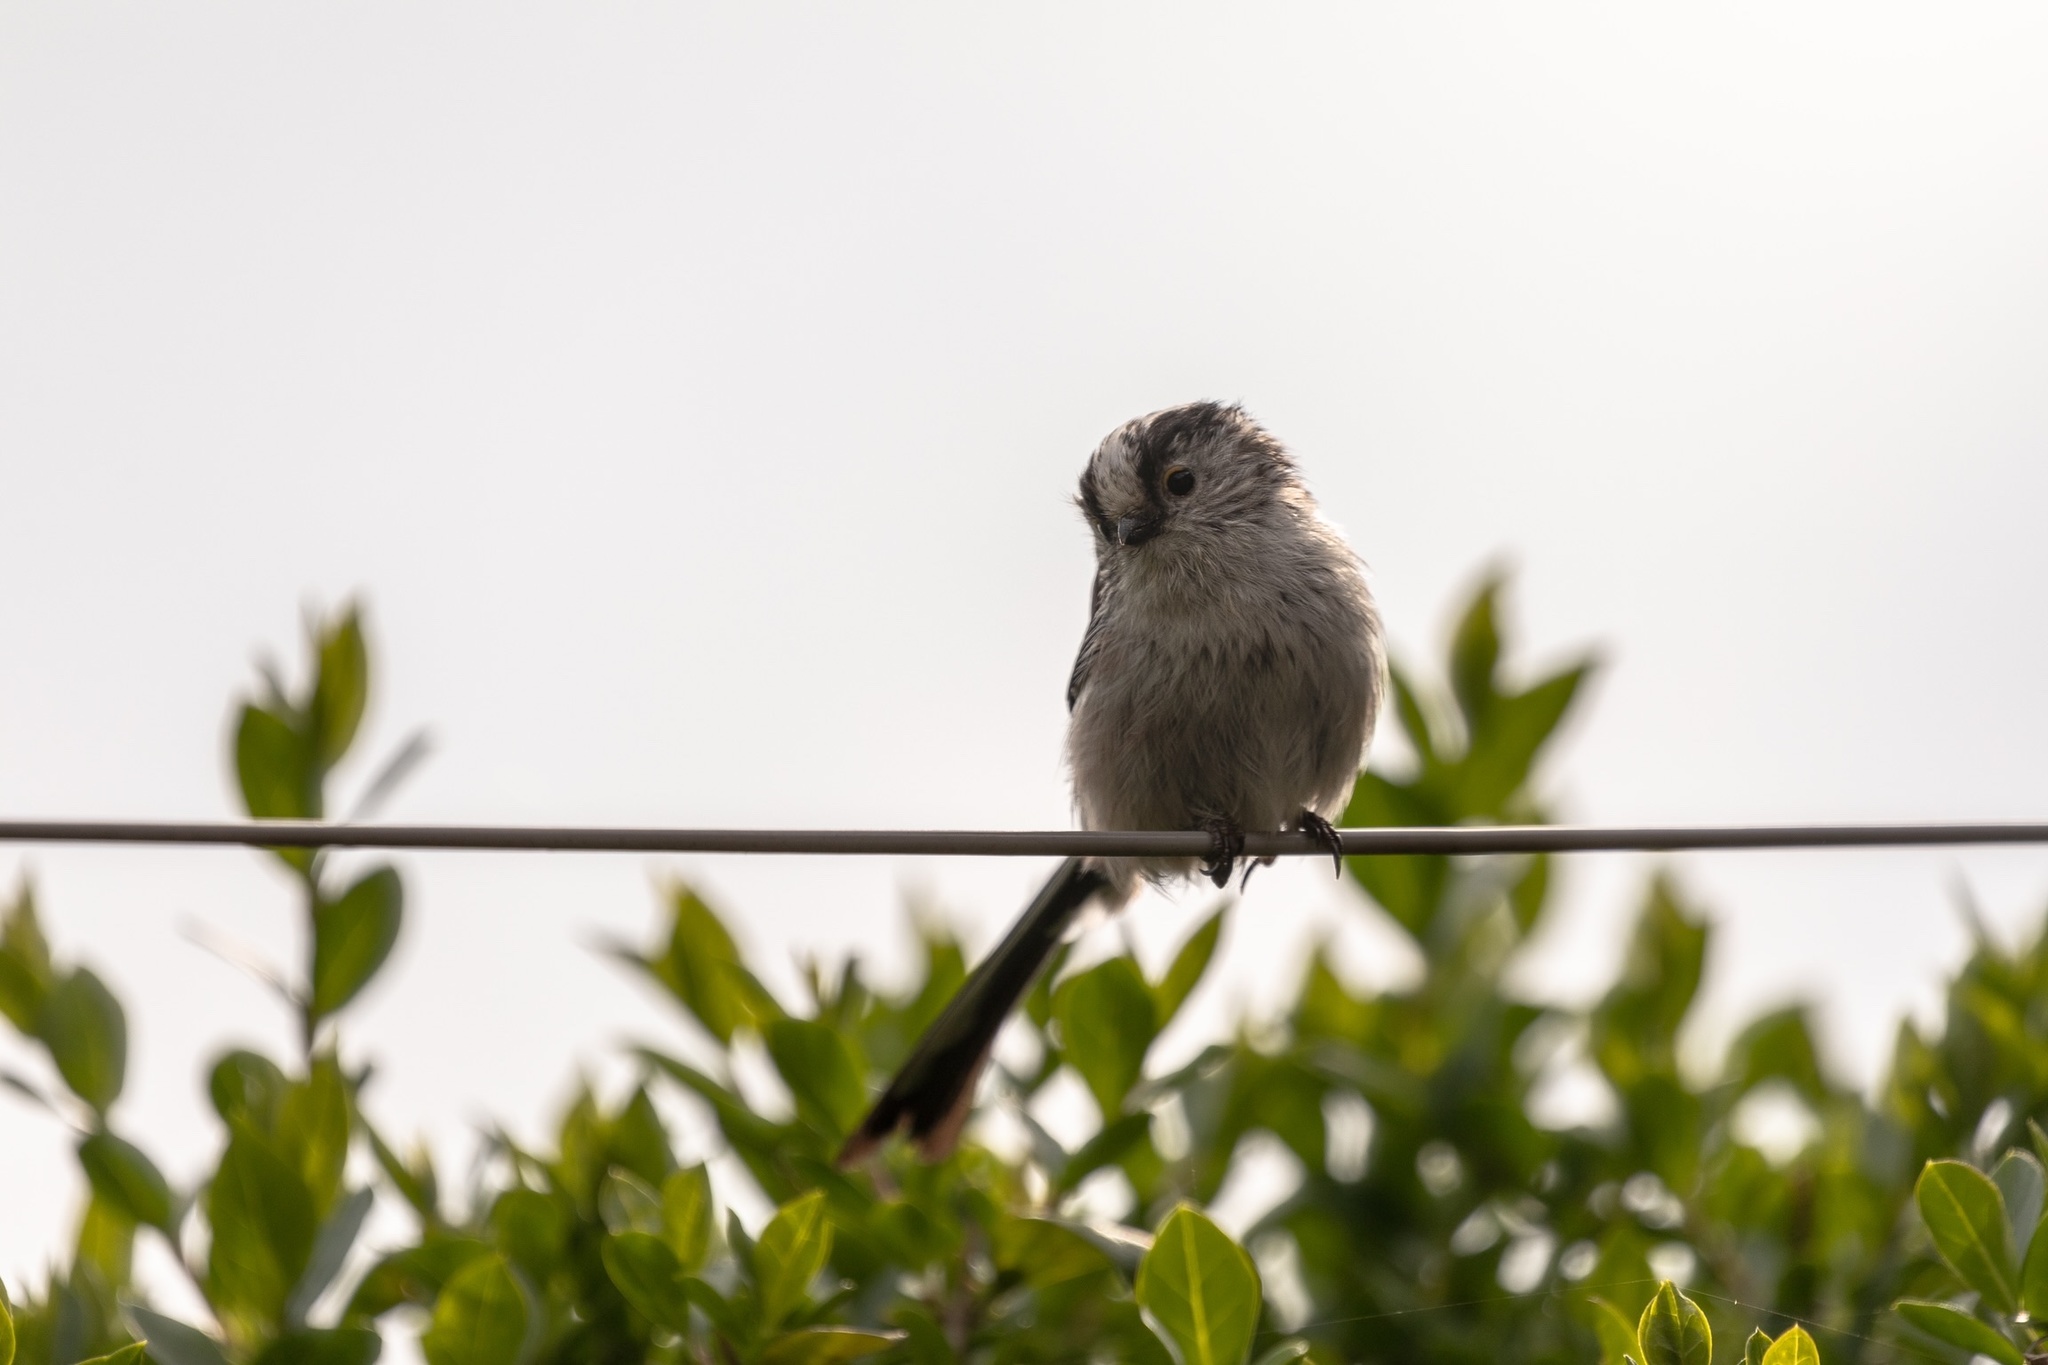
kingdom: Animalia
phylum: Chordata
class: Aves
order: Passeriformes
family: Aegithalidae
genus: Aegithalos
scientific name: Aegithalos caudatus
